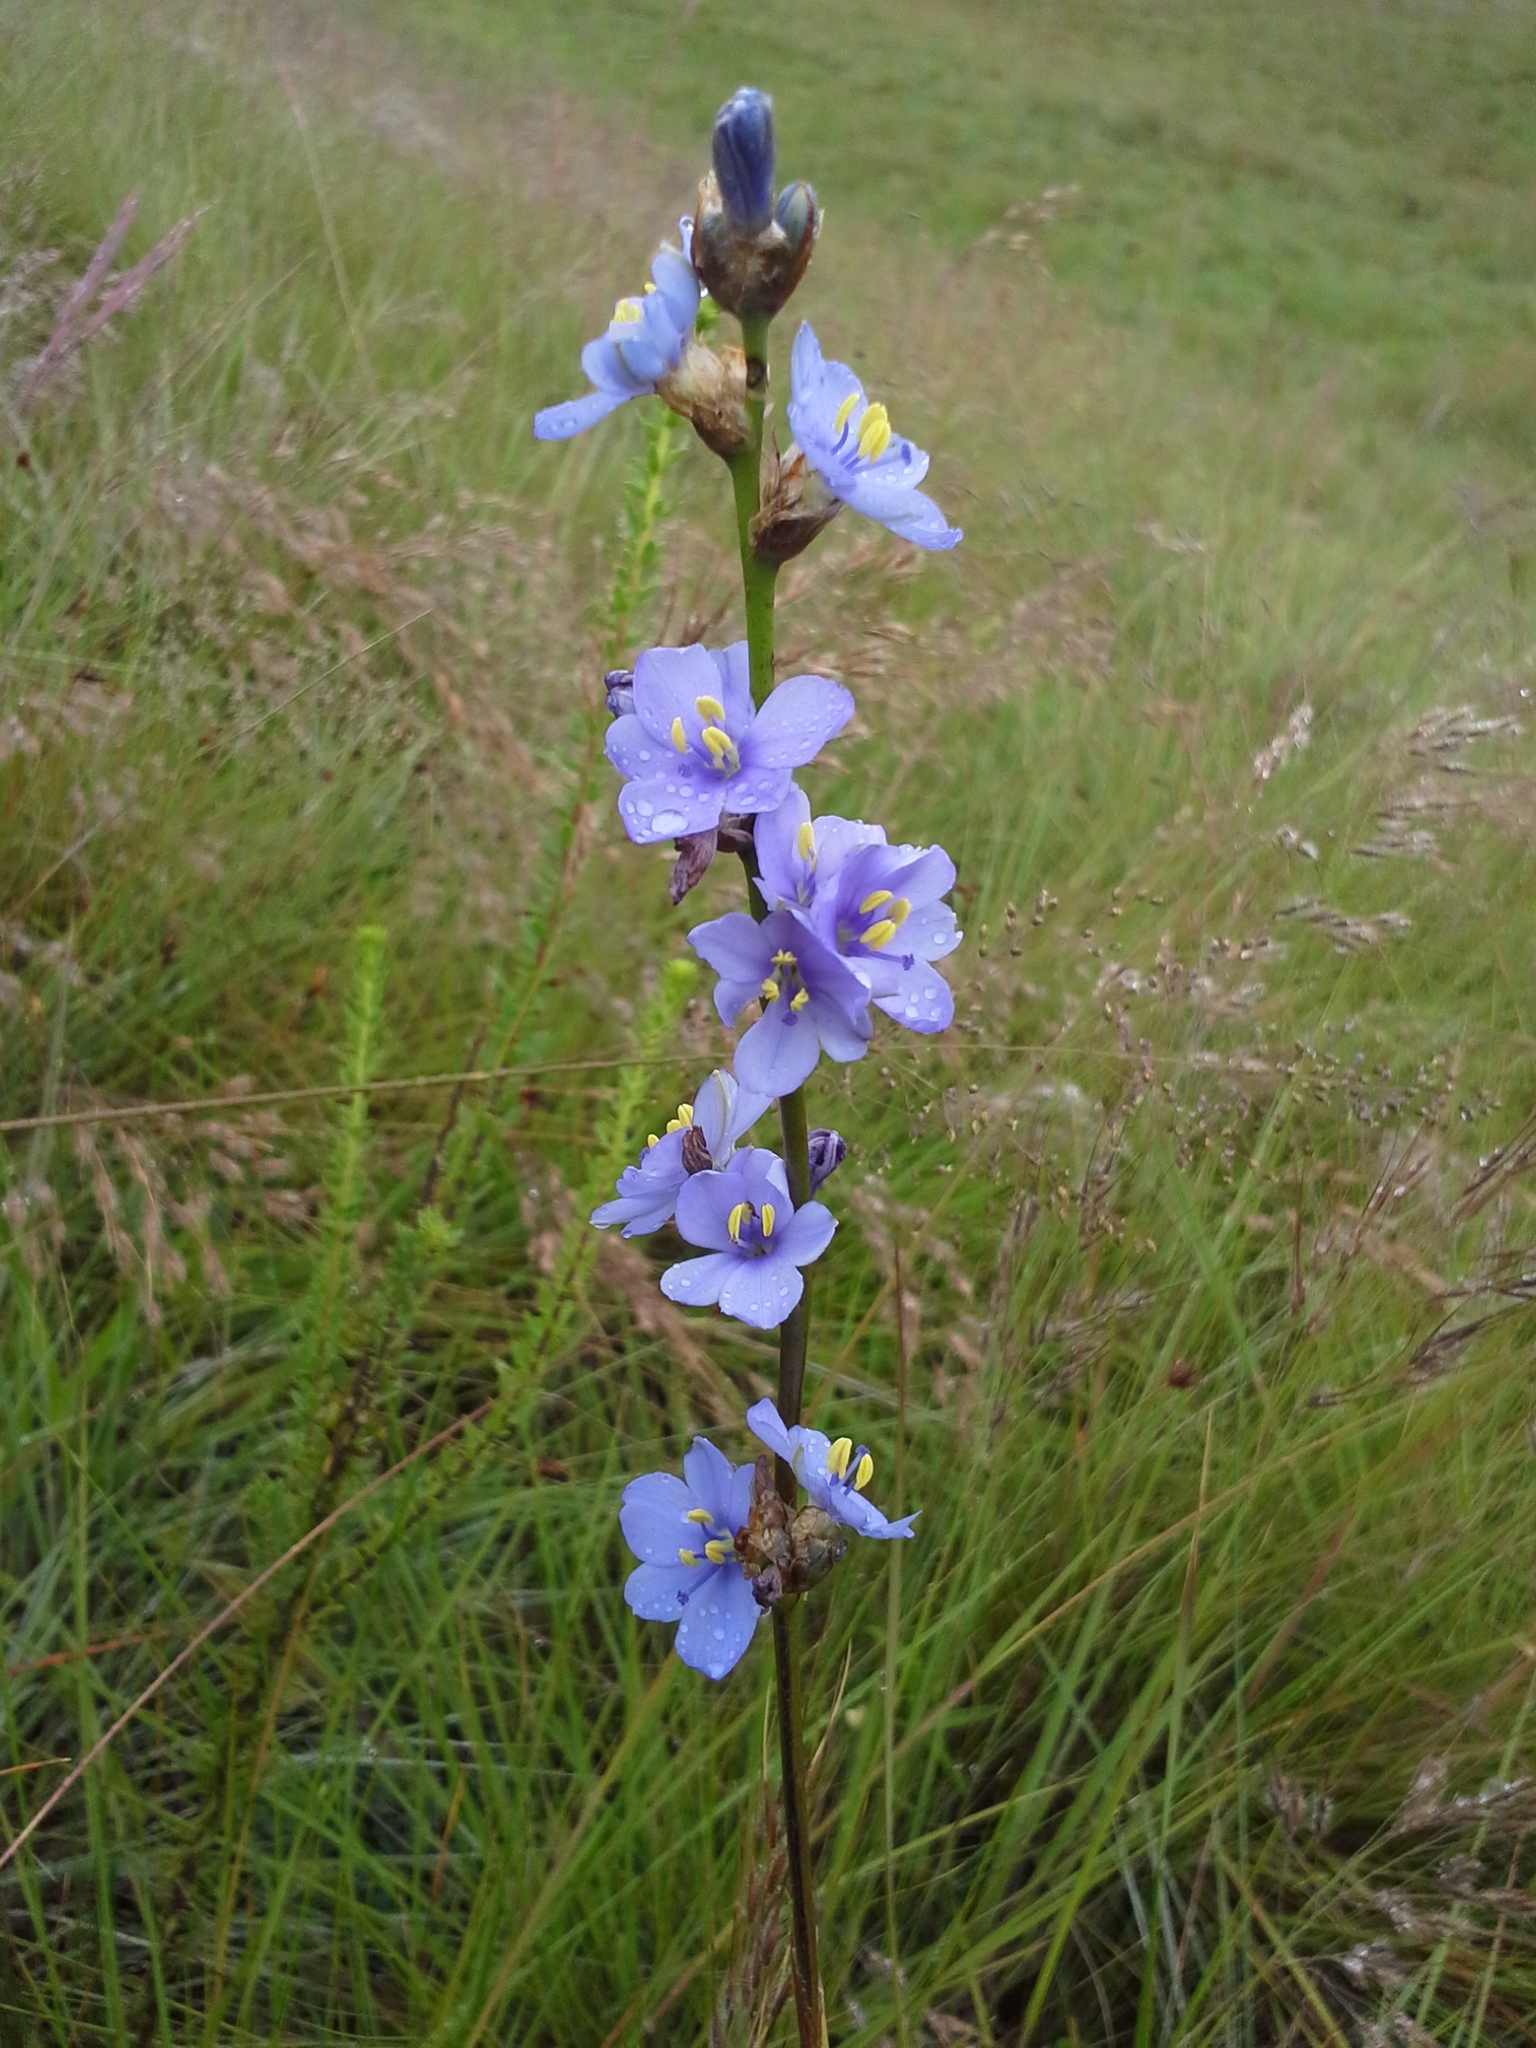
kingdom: Plantae
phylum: Tracheophyta
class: Liliopsida
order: Asparagales
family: Iridaceae
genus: Aristea
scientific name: Aristea angolensis
